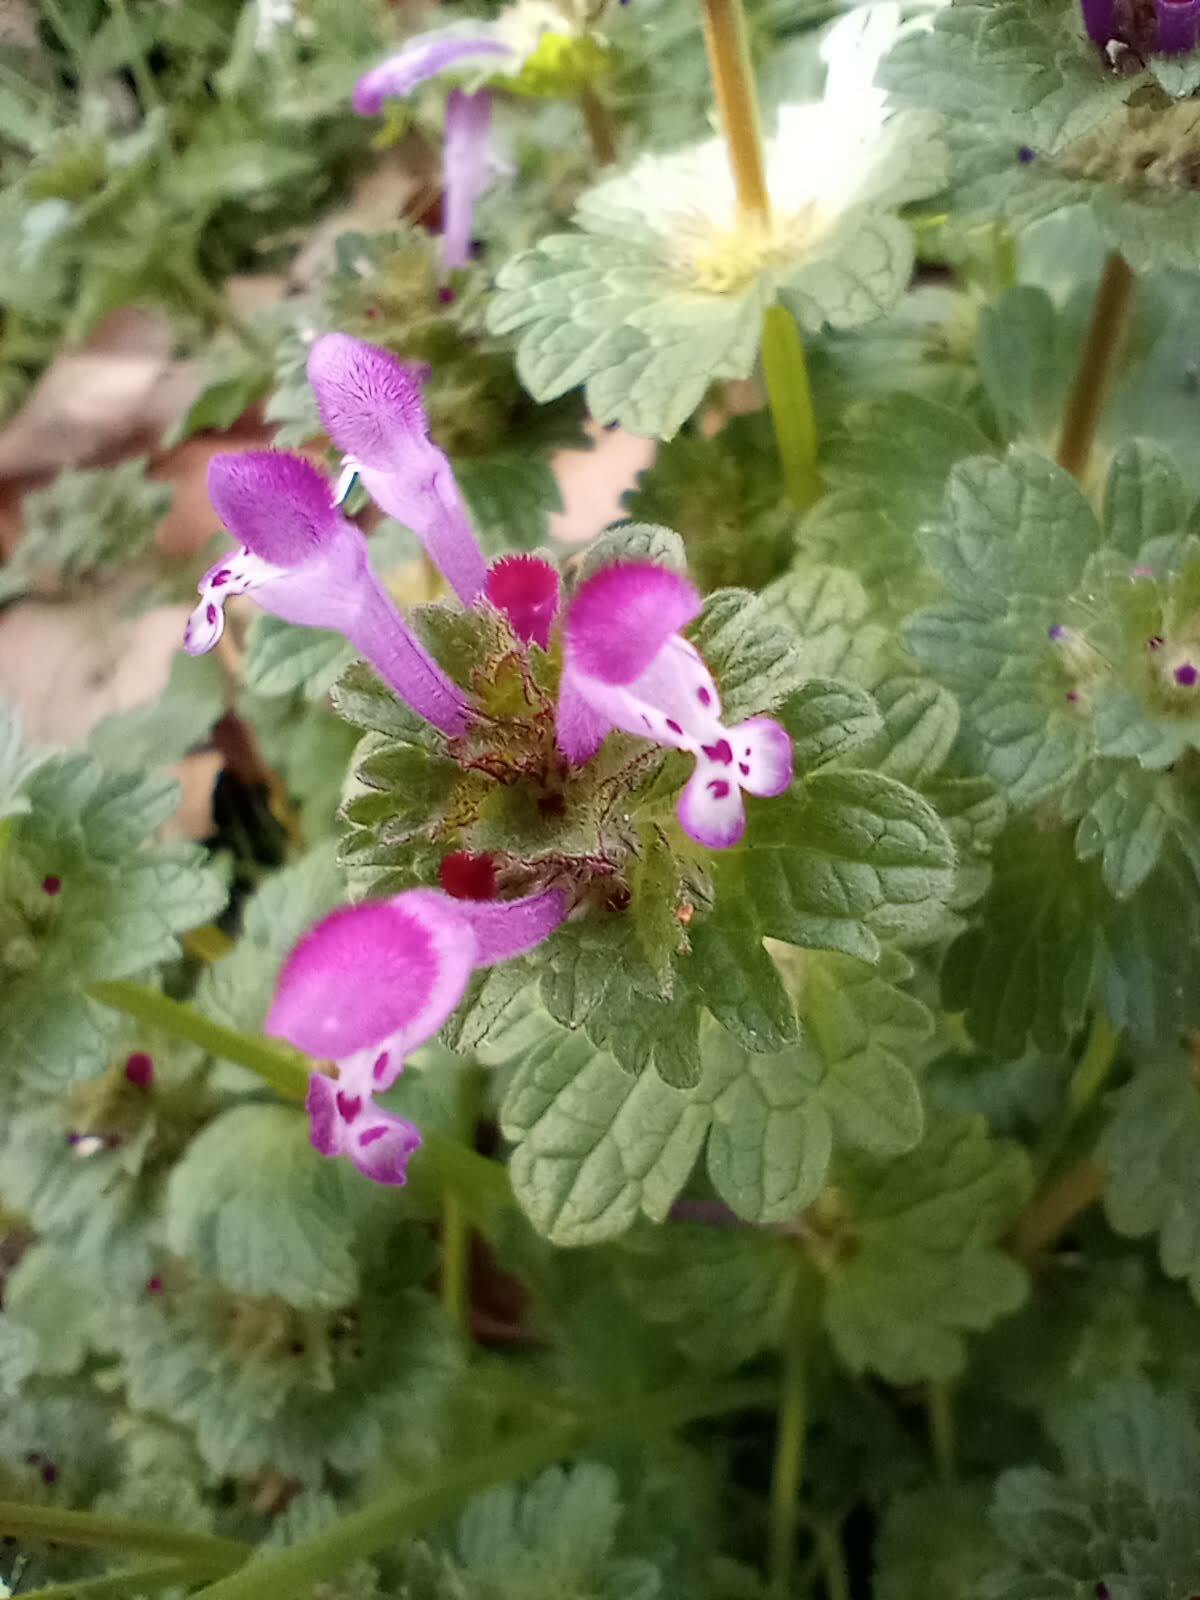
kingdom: Plantae
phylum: Tracheophyta
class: Magnoliopsida
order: Lamiales
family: Lamiaceae
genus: Lamium
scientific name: Lamium amplexicaule
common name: Henbit dead-nettle
